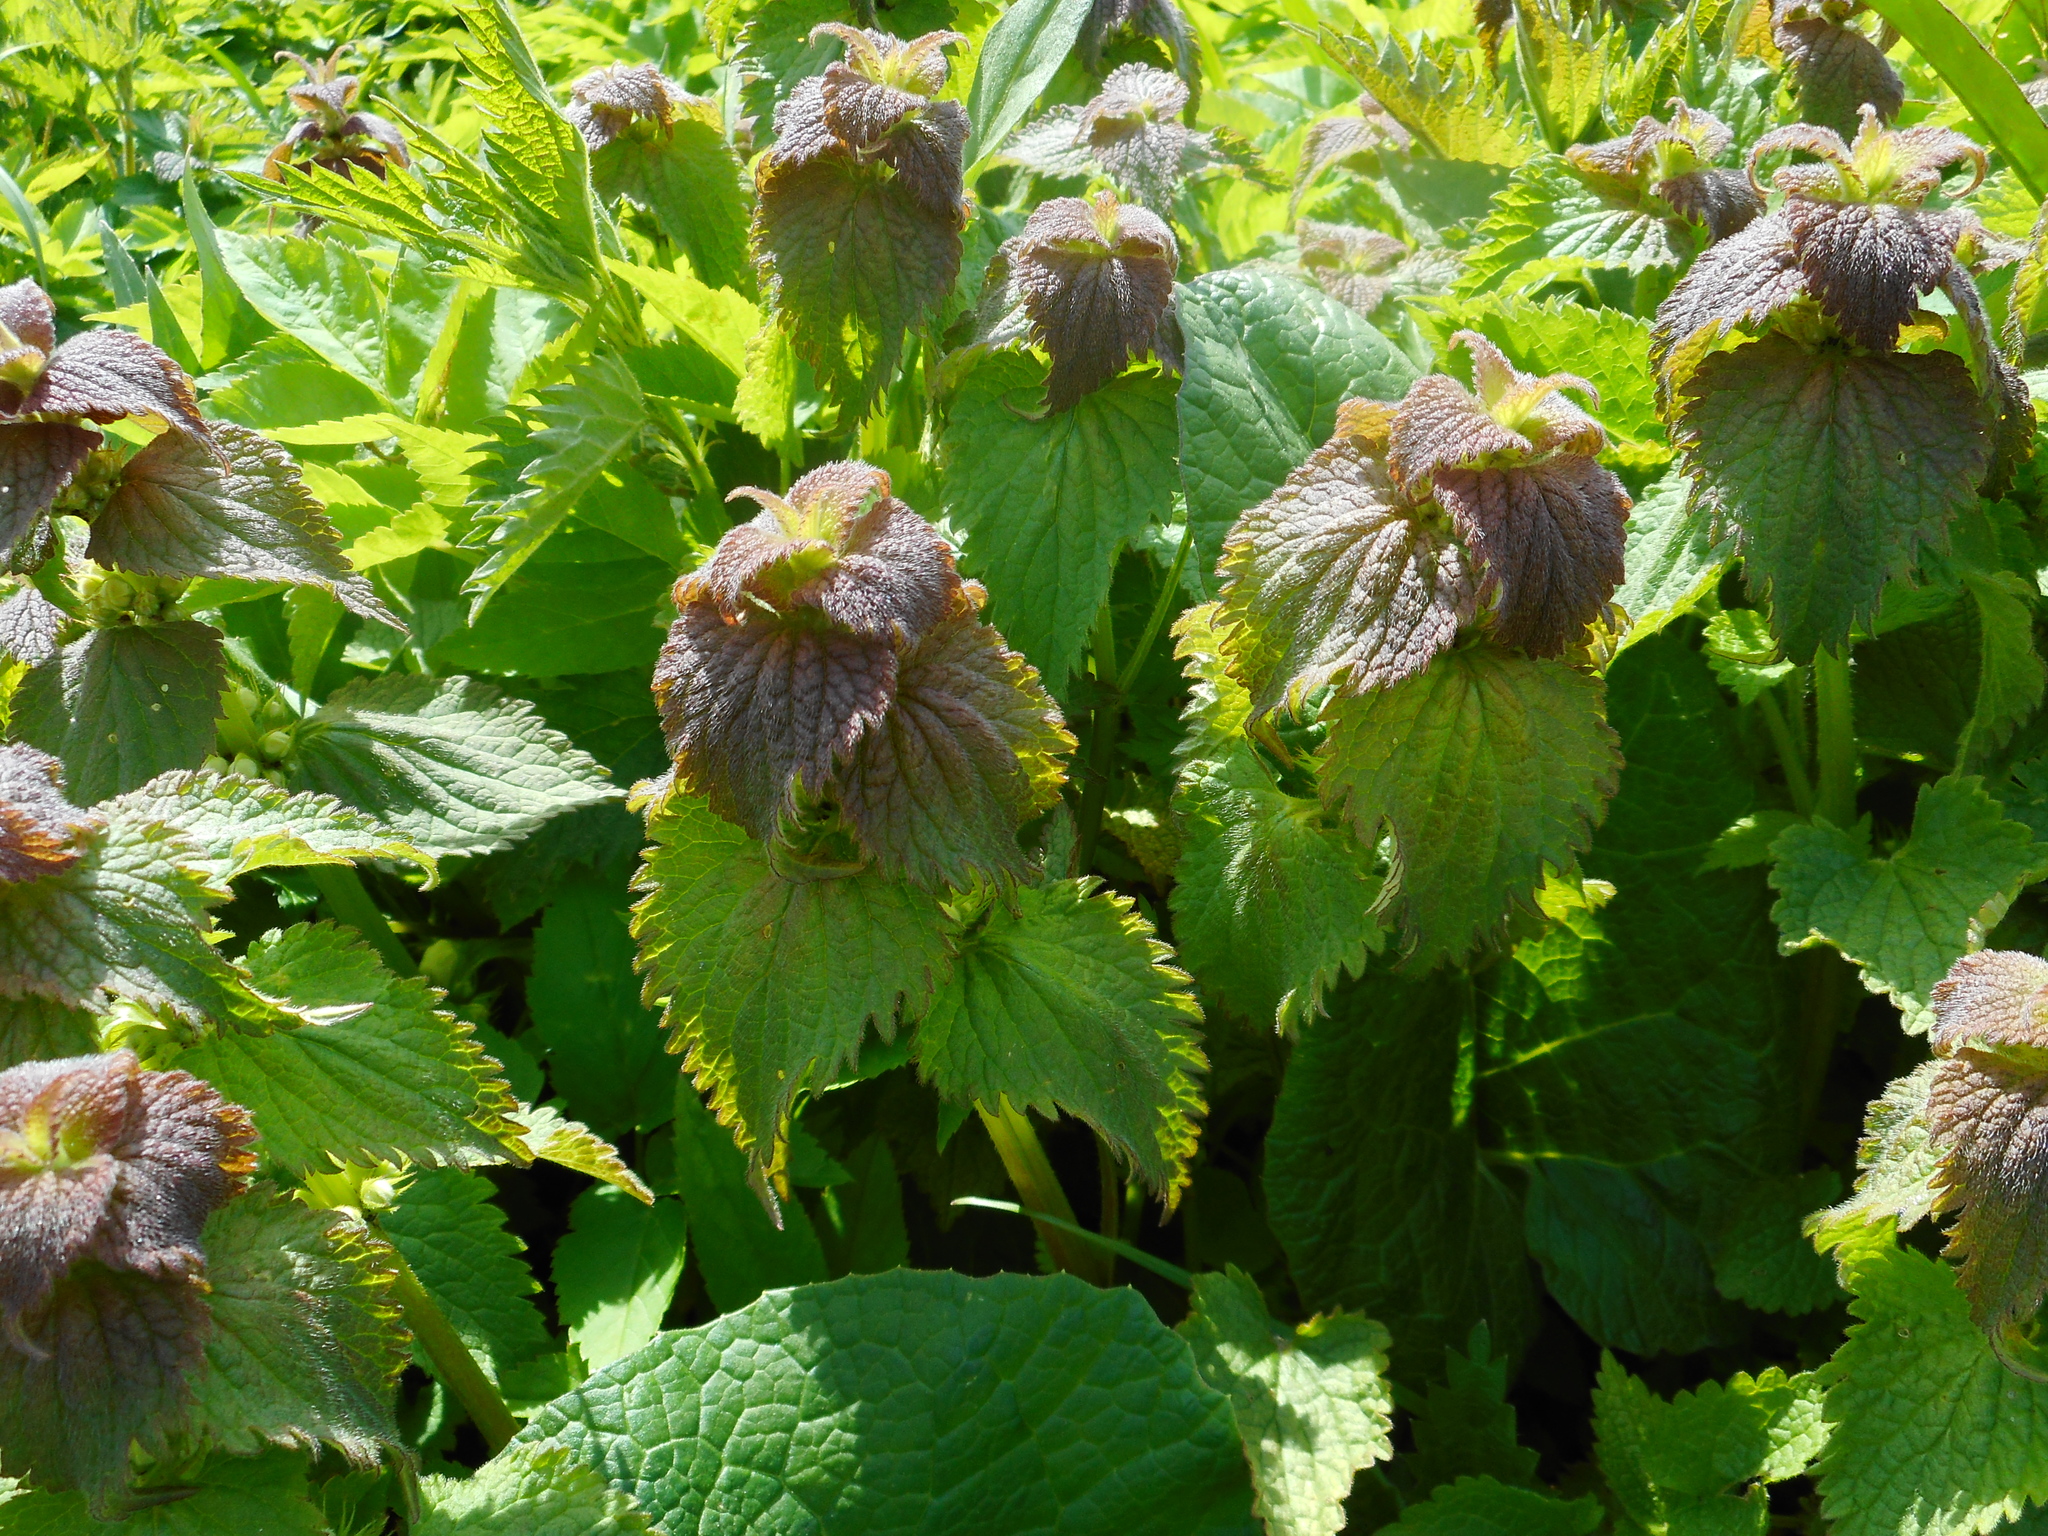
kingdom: Plantae
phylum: Tracheophyta
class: Magnoliopsida
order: Lamiales
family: Lamiaceae
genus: Lamium
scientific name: Lamium album
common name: White dead-nettle
